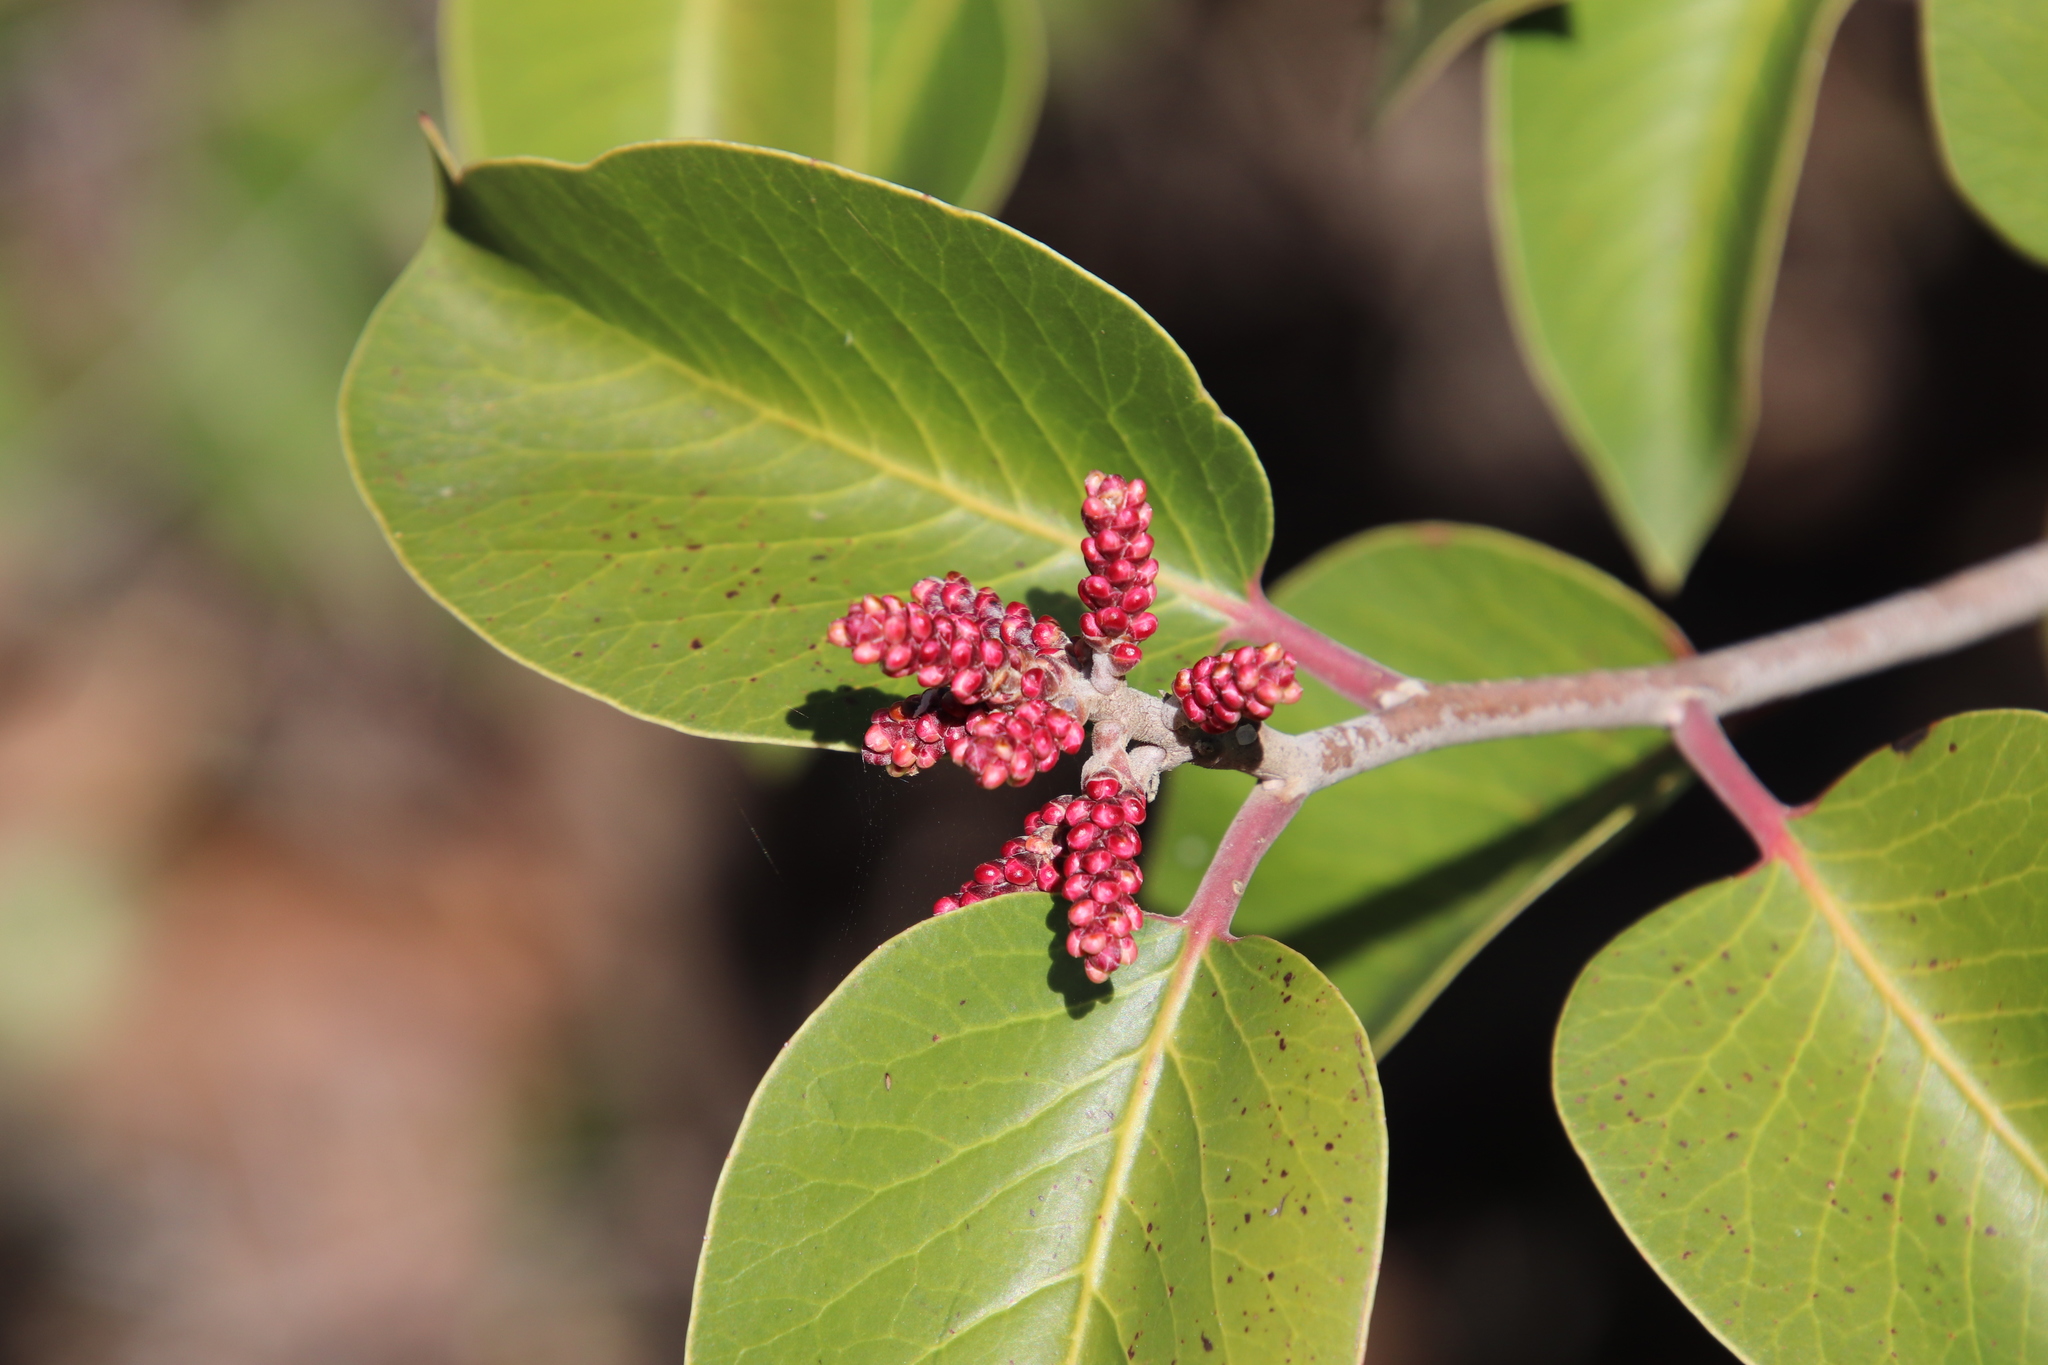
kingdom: Plantae
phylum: Tracheophyta
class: Magnoliopsida
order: Sapindales
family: Anacardiaceae
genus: Rhus
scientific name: Rhus ovata
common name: Sugar sumac
